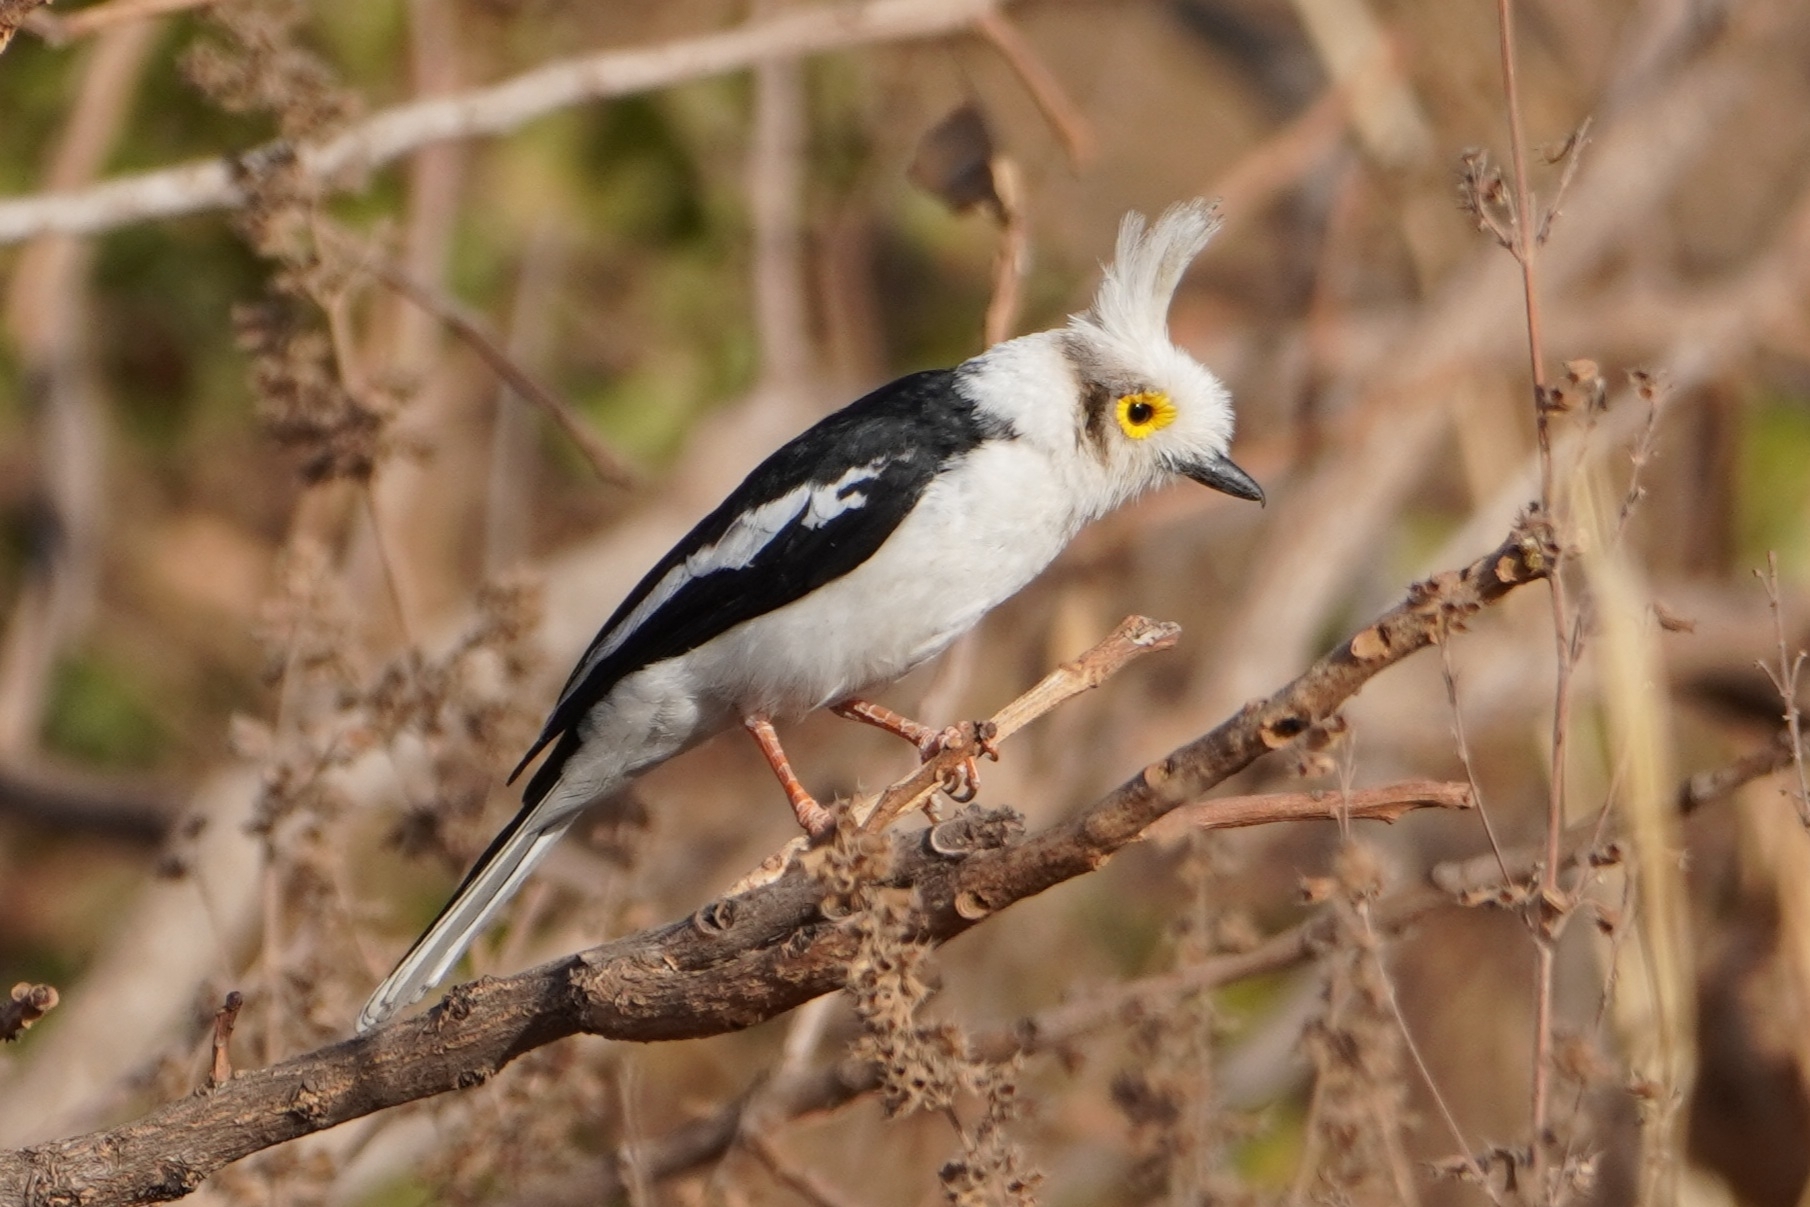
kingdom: Animalia
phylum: Chordata
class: Aves
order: Passeriformes
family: Prionopidae
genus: Prionops
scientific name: Prionops plumatus
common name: White-crested helmetshrike
